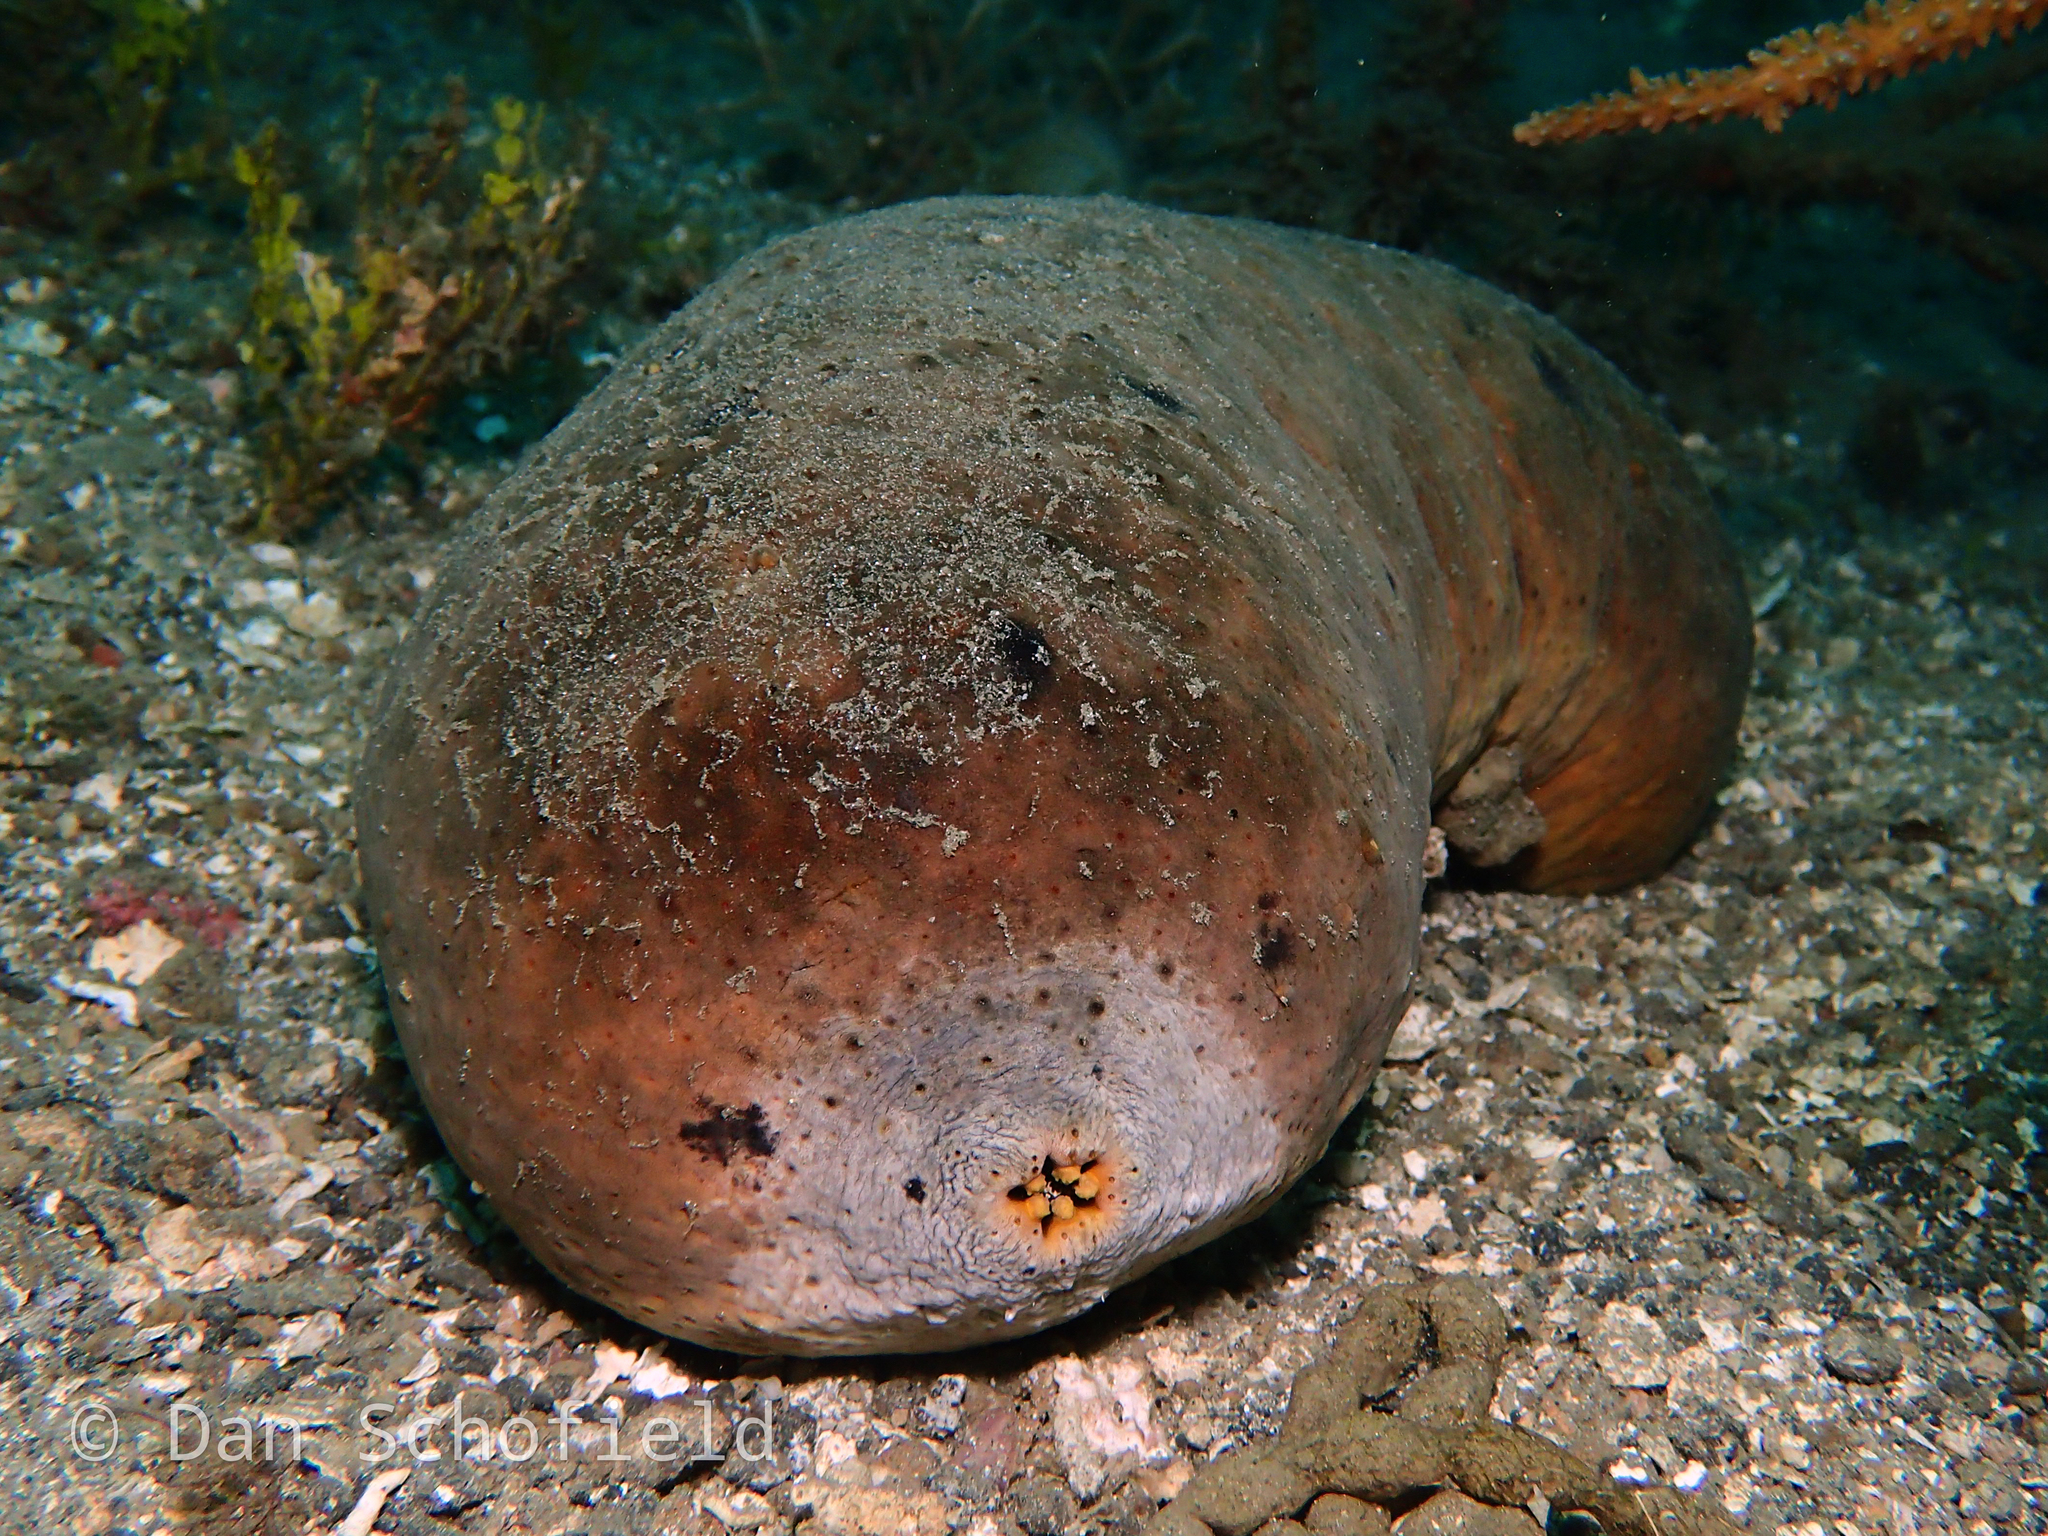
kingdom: Animalia
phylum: Echinodermata
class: Holothuroidea
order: Holothuriida
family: Holothuriidae
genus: Actinopyga
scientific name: Actinopyga lecanora
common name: Stonefish
